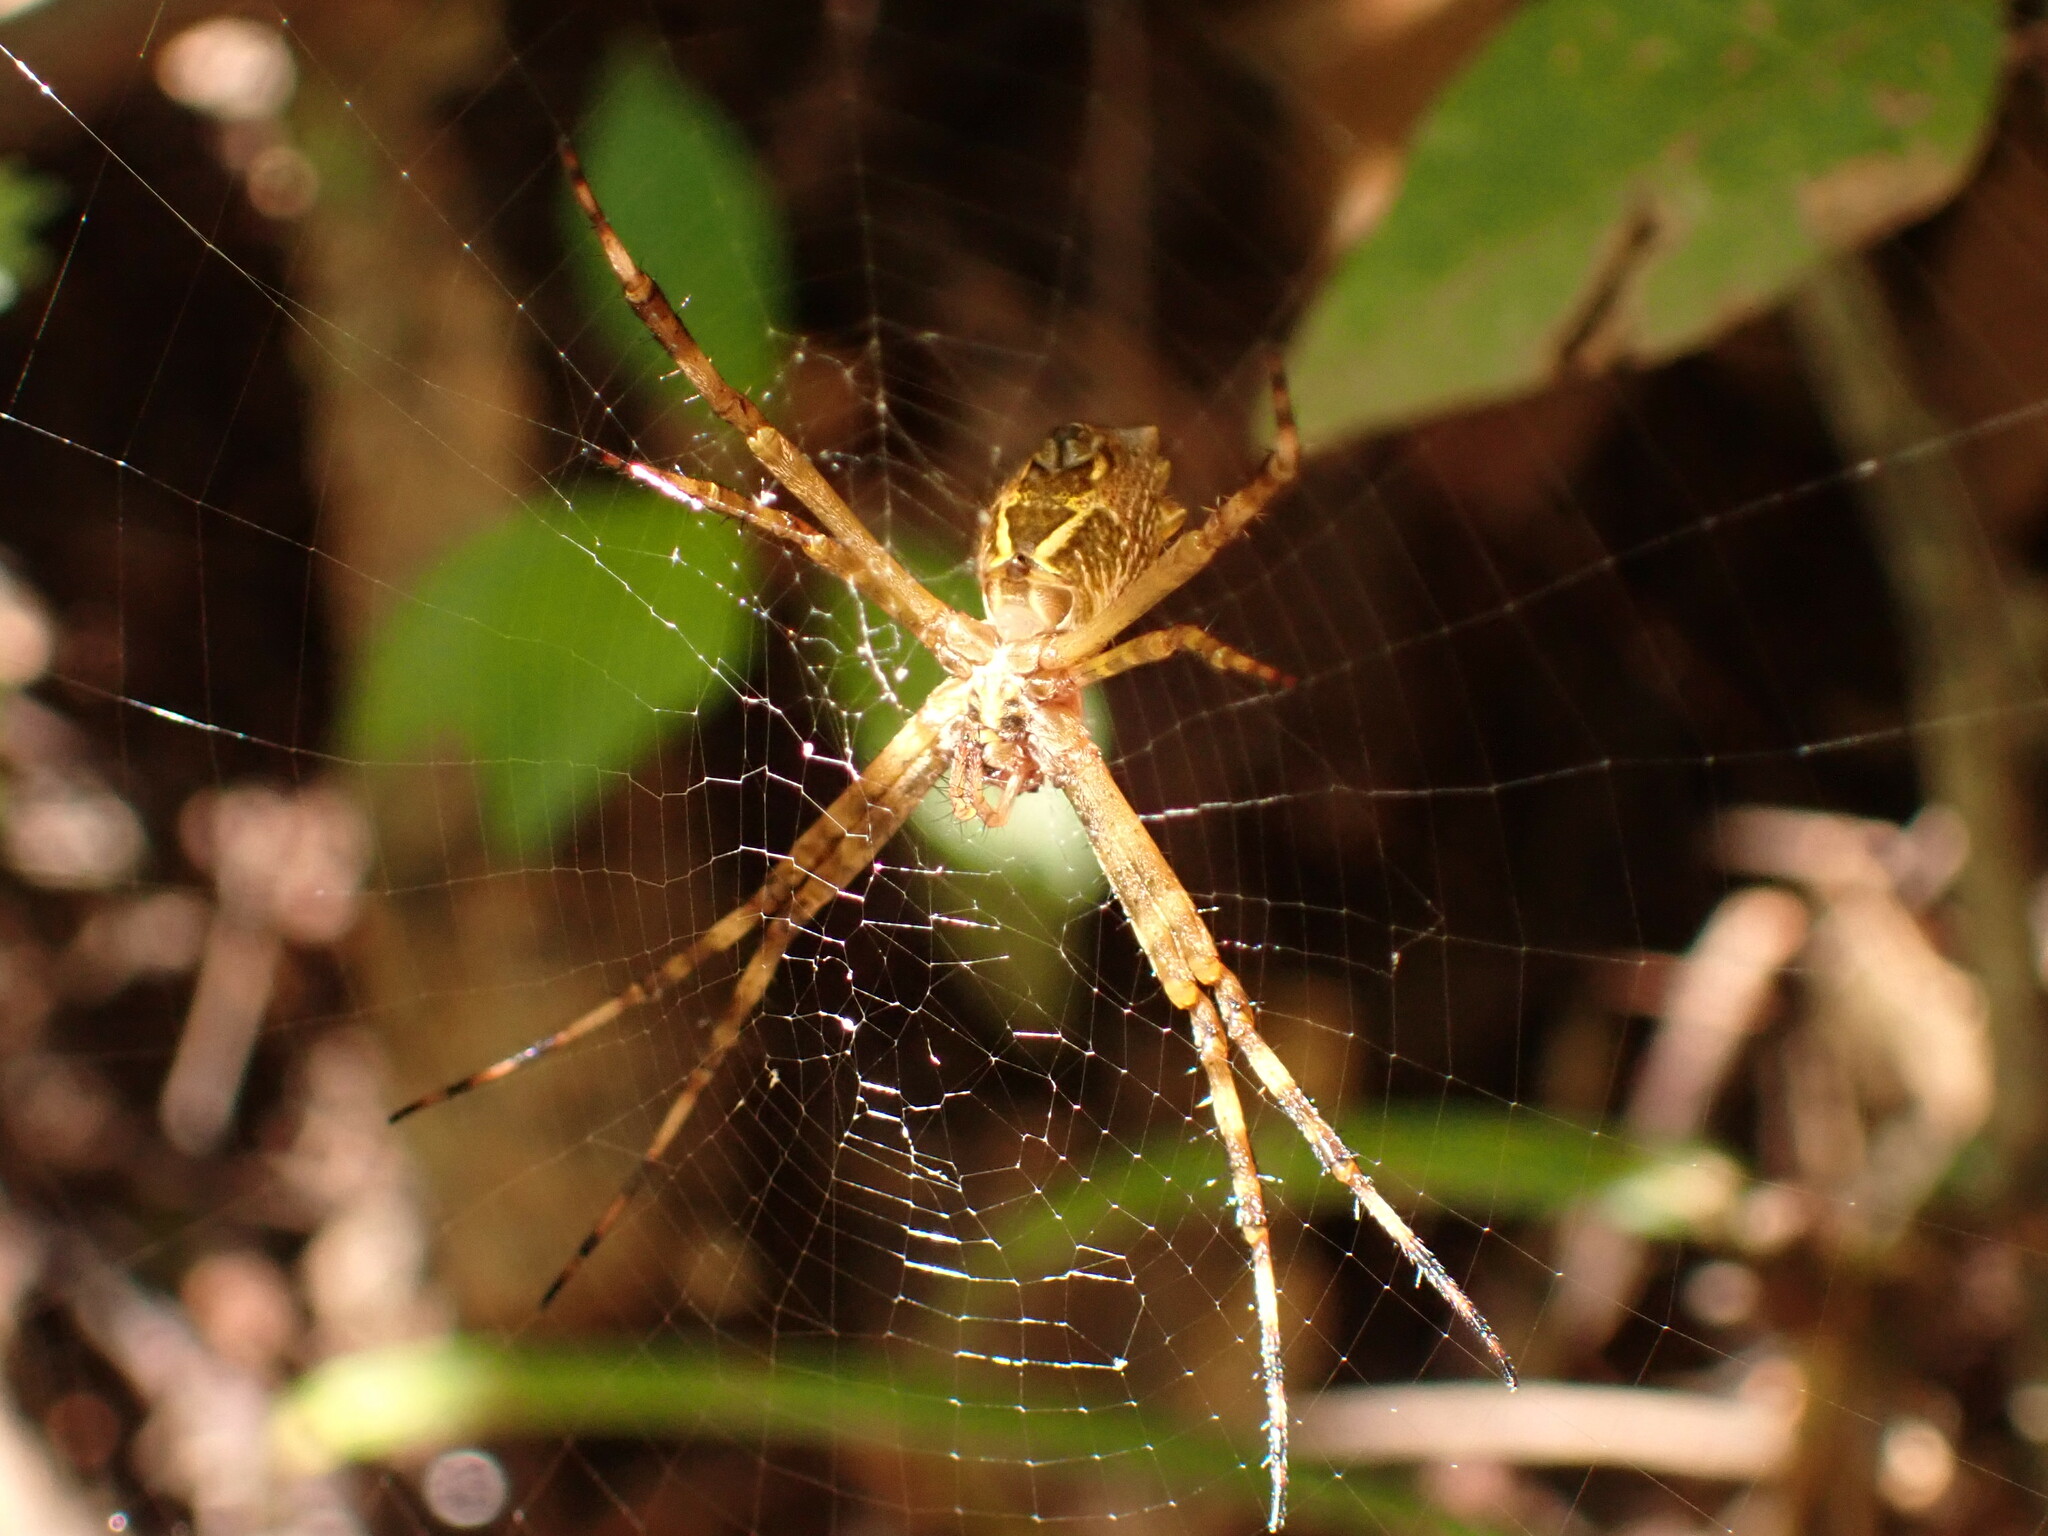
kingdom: Animalia
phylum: Arthropoda
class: Arachnida
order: Araneae
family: Araneidae
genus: Argiope
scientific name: Argiope argentata
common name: Orb weavers
